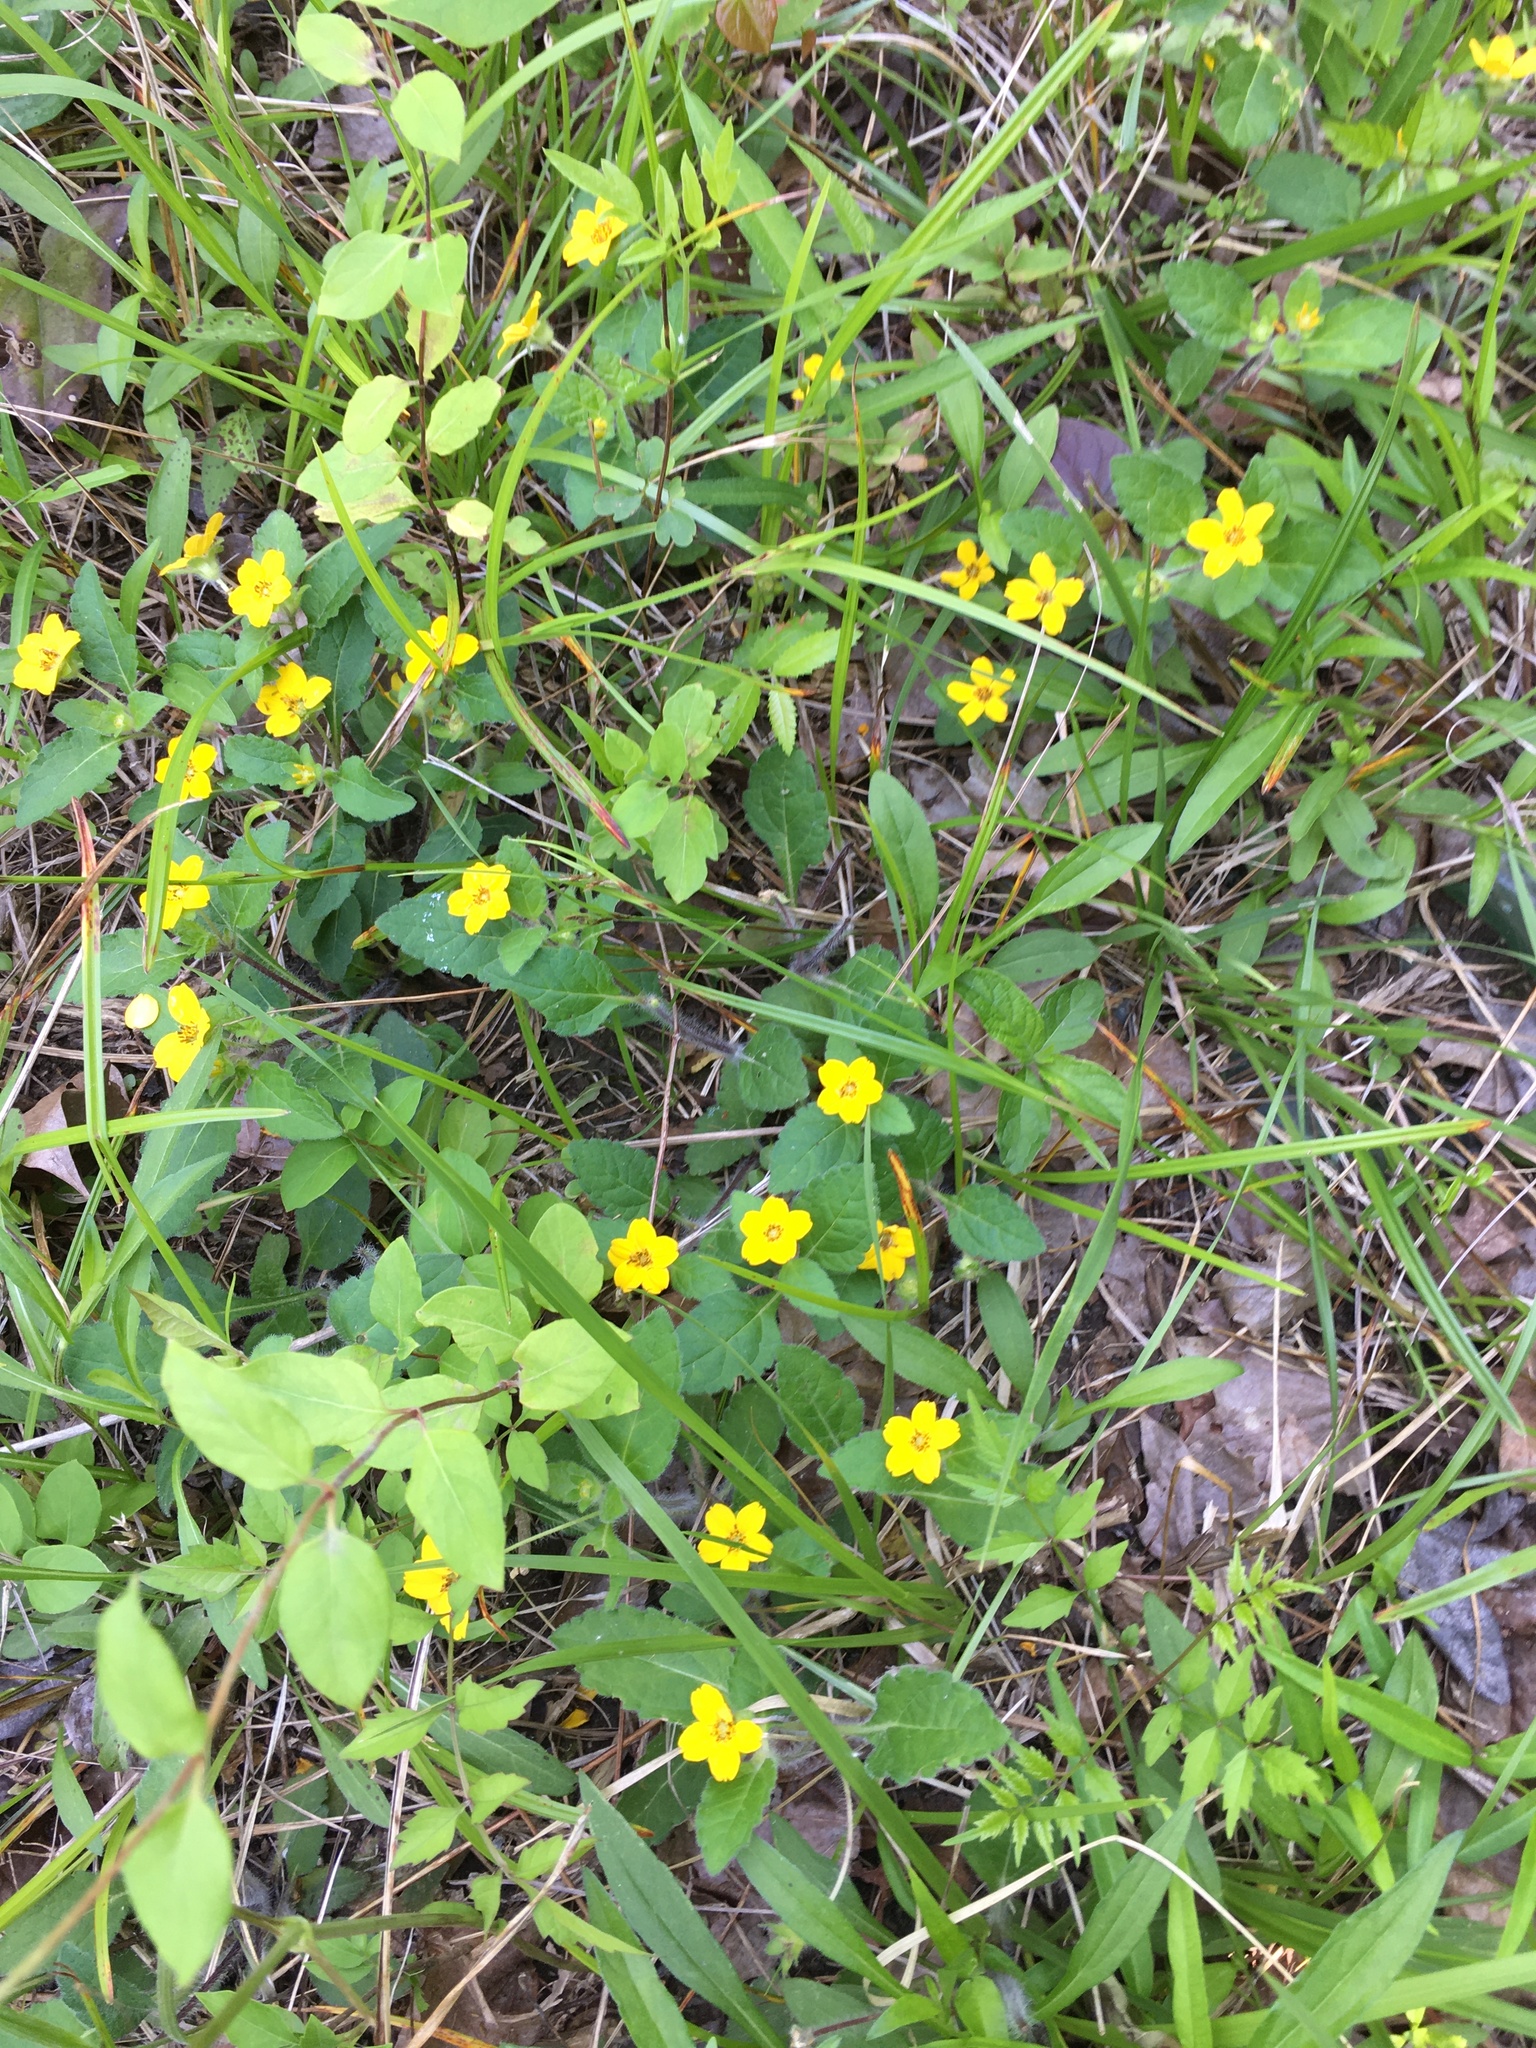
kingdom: Plantae
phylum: Tracheophyta
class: Magnoliopsida
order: Asterales
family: Asteraceae
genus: Chrysogonum
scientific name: Chrysogonum virginianum
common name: Golden-knee
